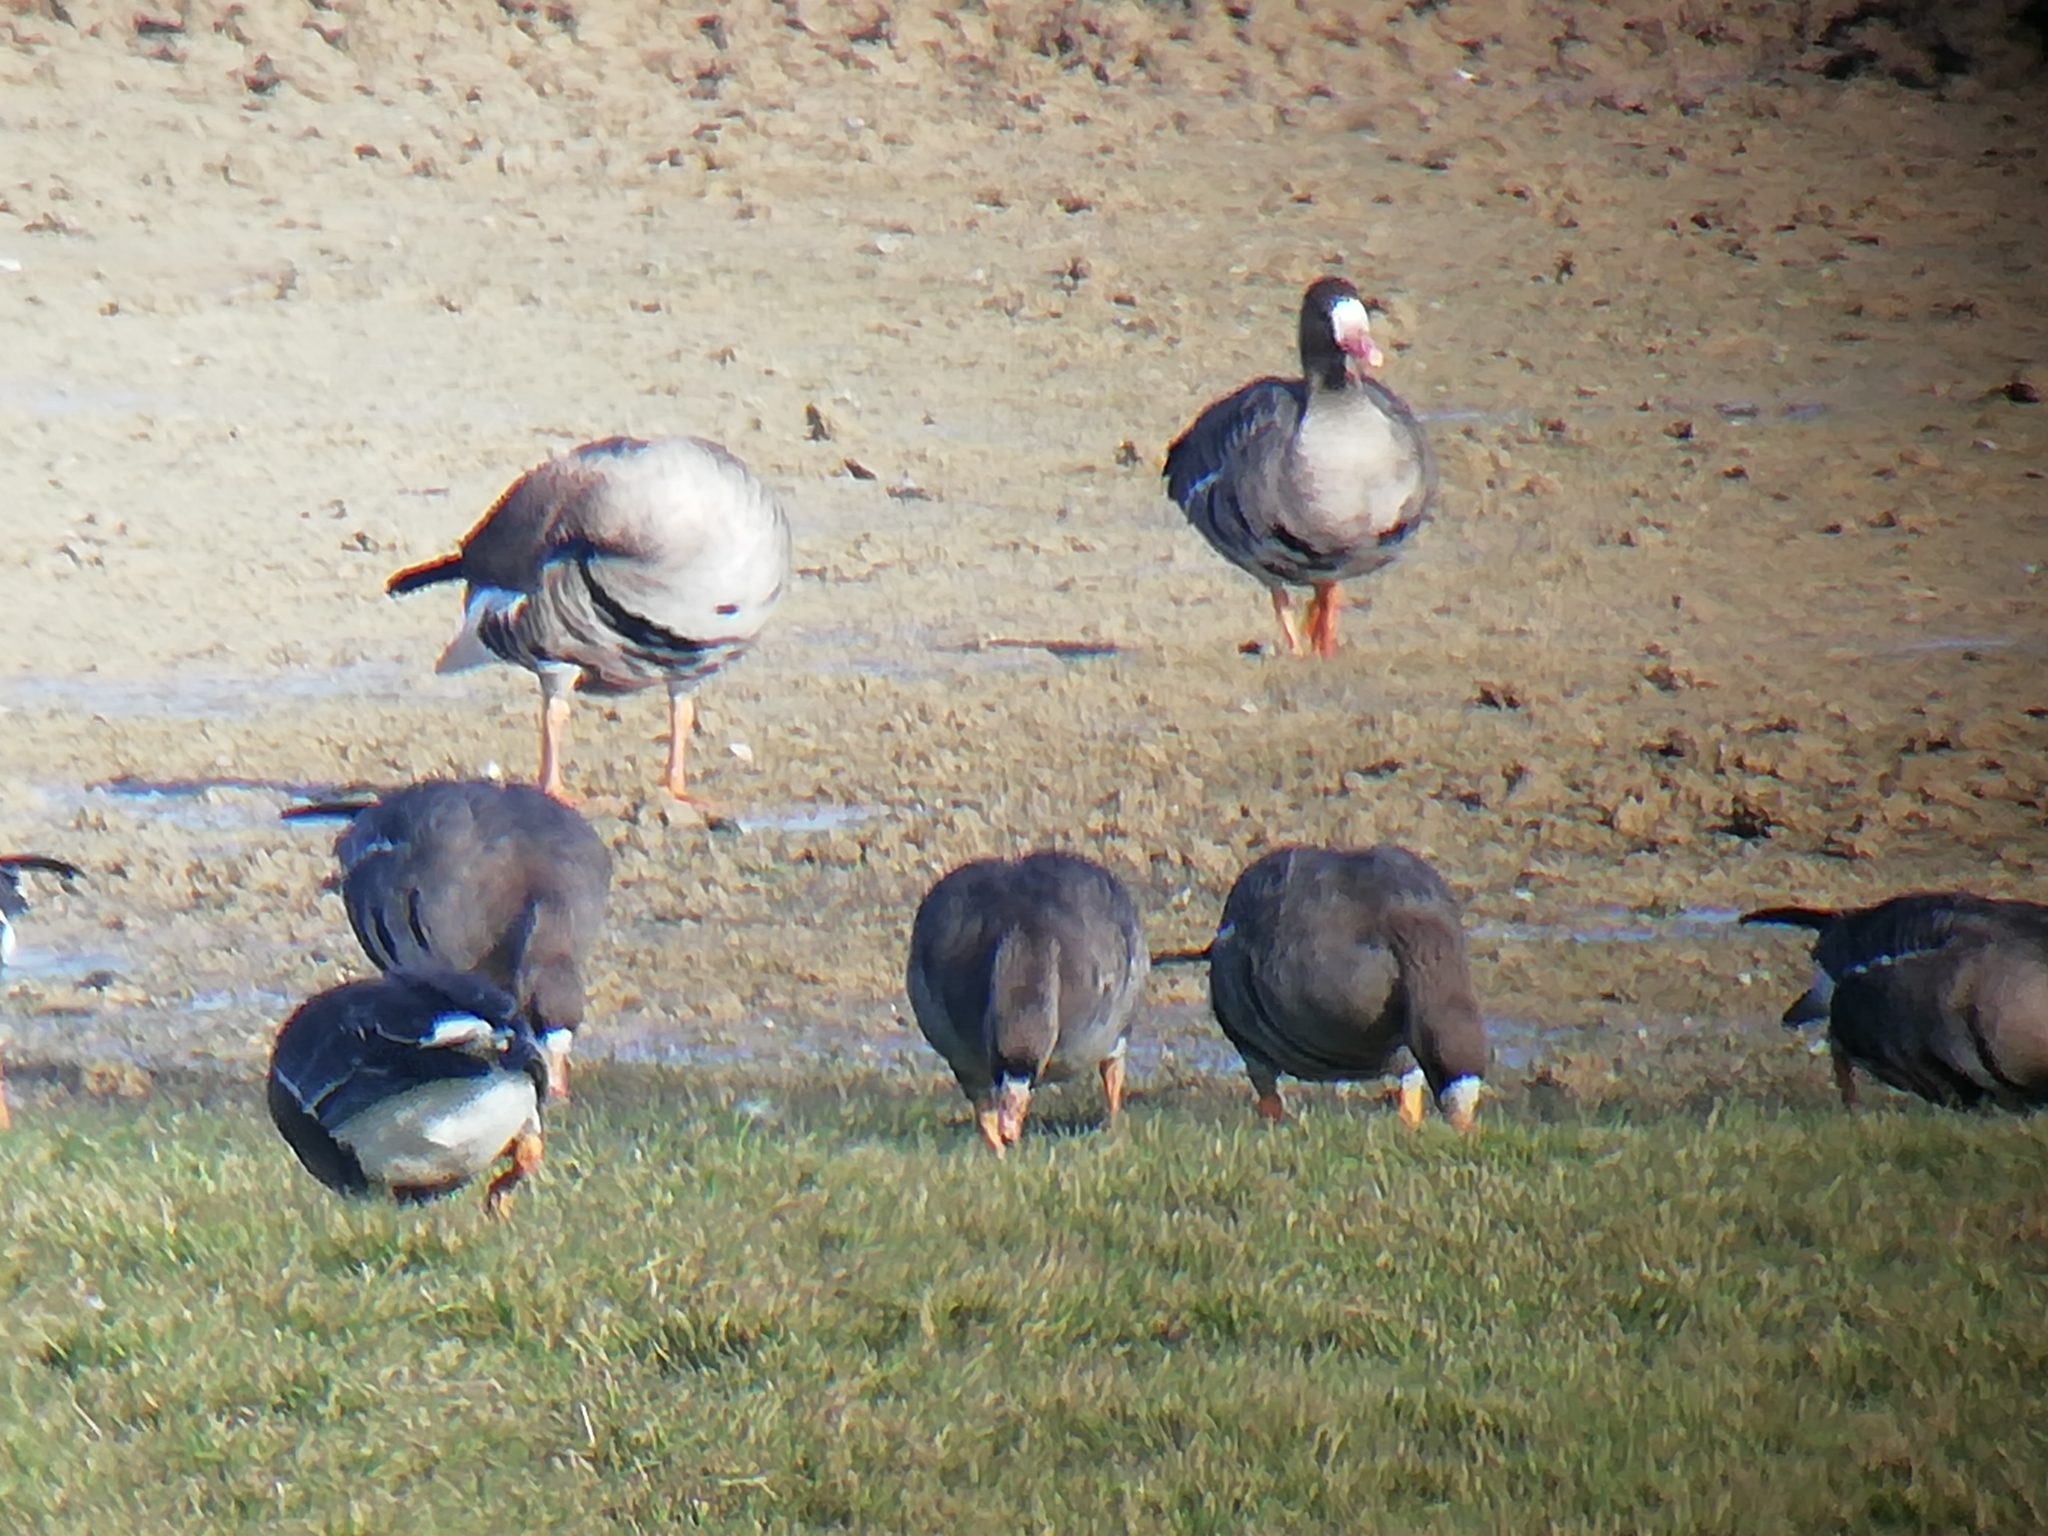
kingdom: Animalia
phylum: Chordata
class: Aves
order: Anseriformes
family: Anatidae
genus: Anser
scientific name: Anser albifrons
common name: Greater white-fronted goose
